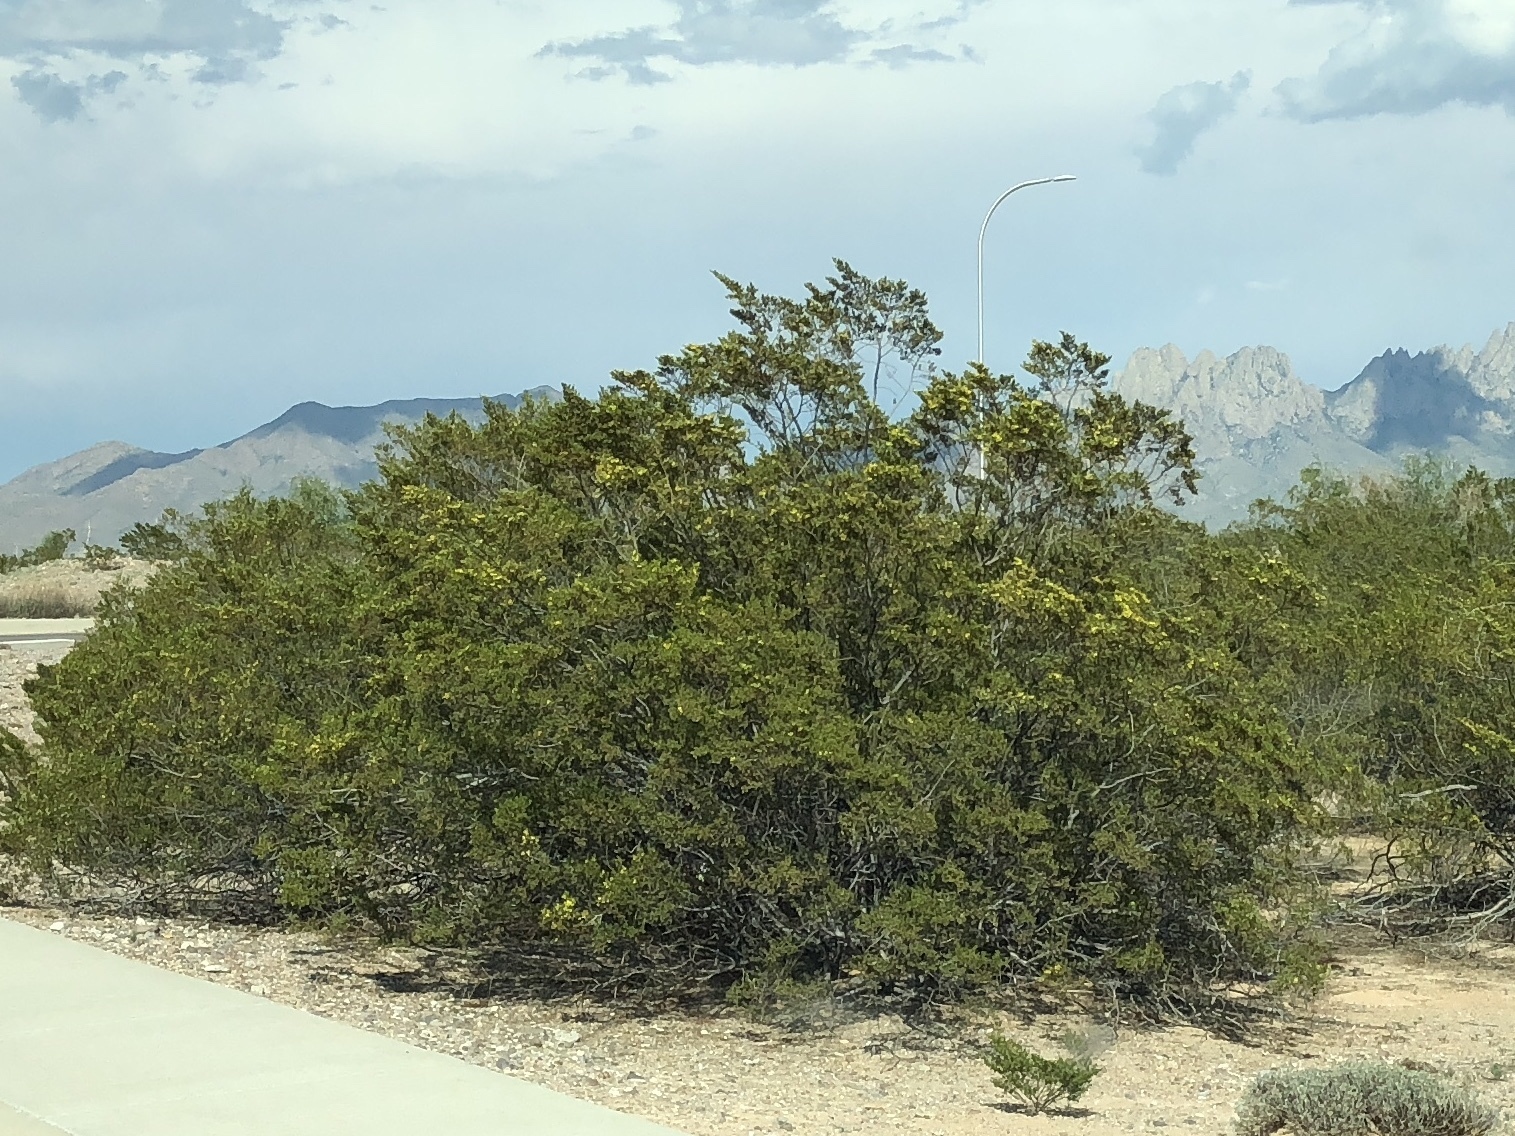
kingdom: Plantae
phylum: Tracheophyta
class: Magnoliopsida
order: Zygophyllales
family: Zygophyllaceae
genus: Larrea
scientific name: Larrea tridentata
